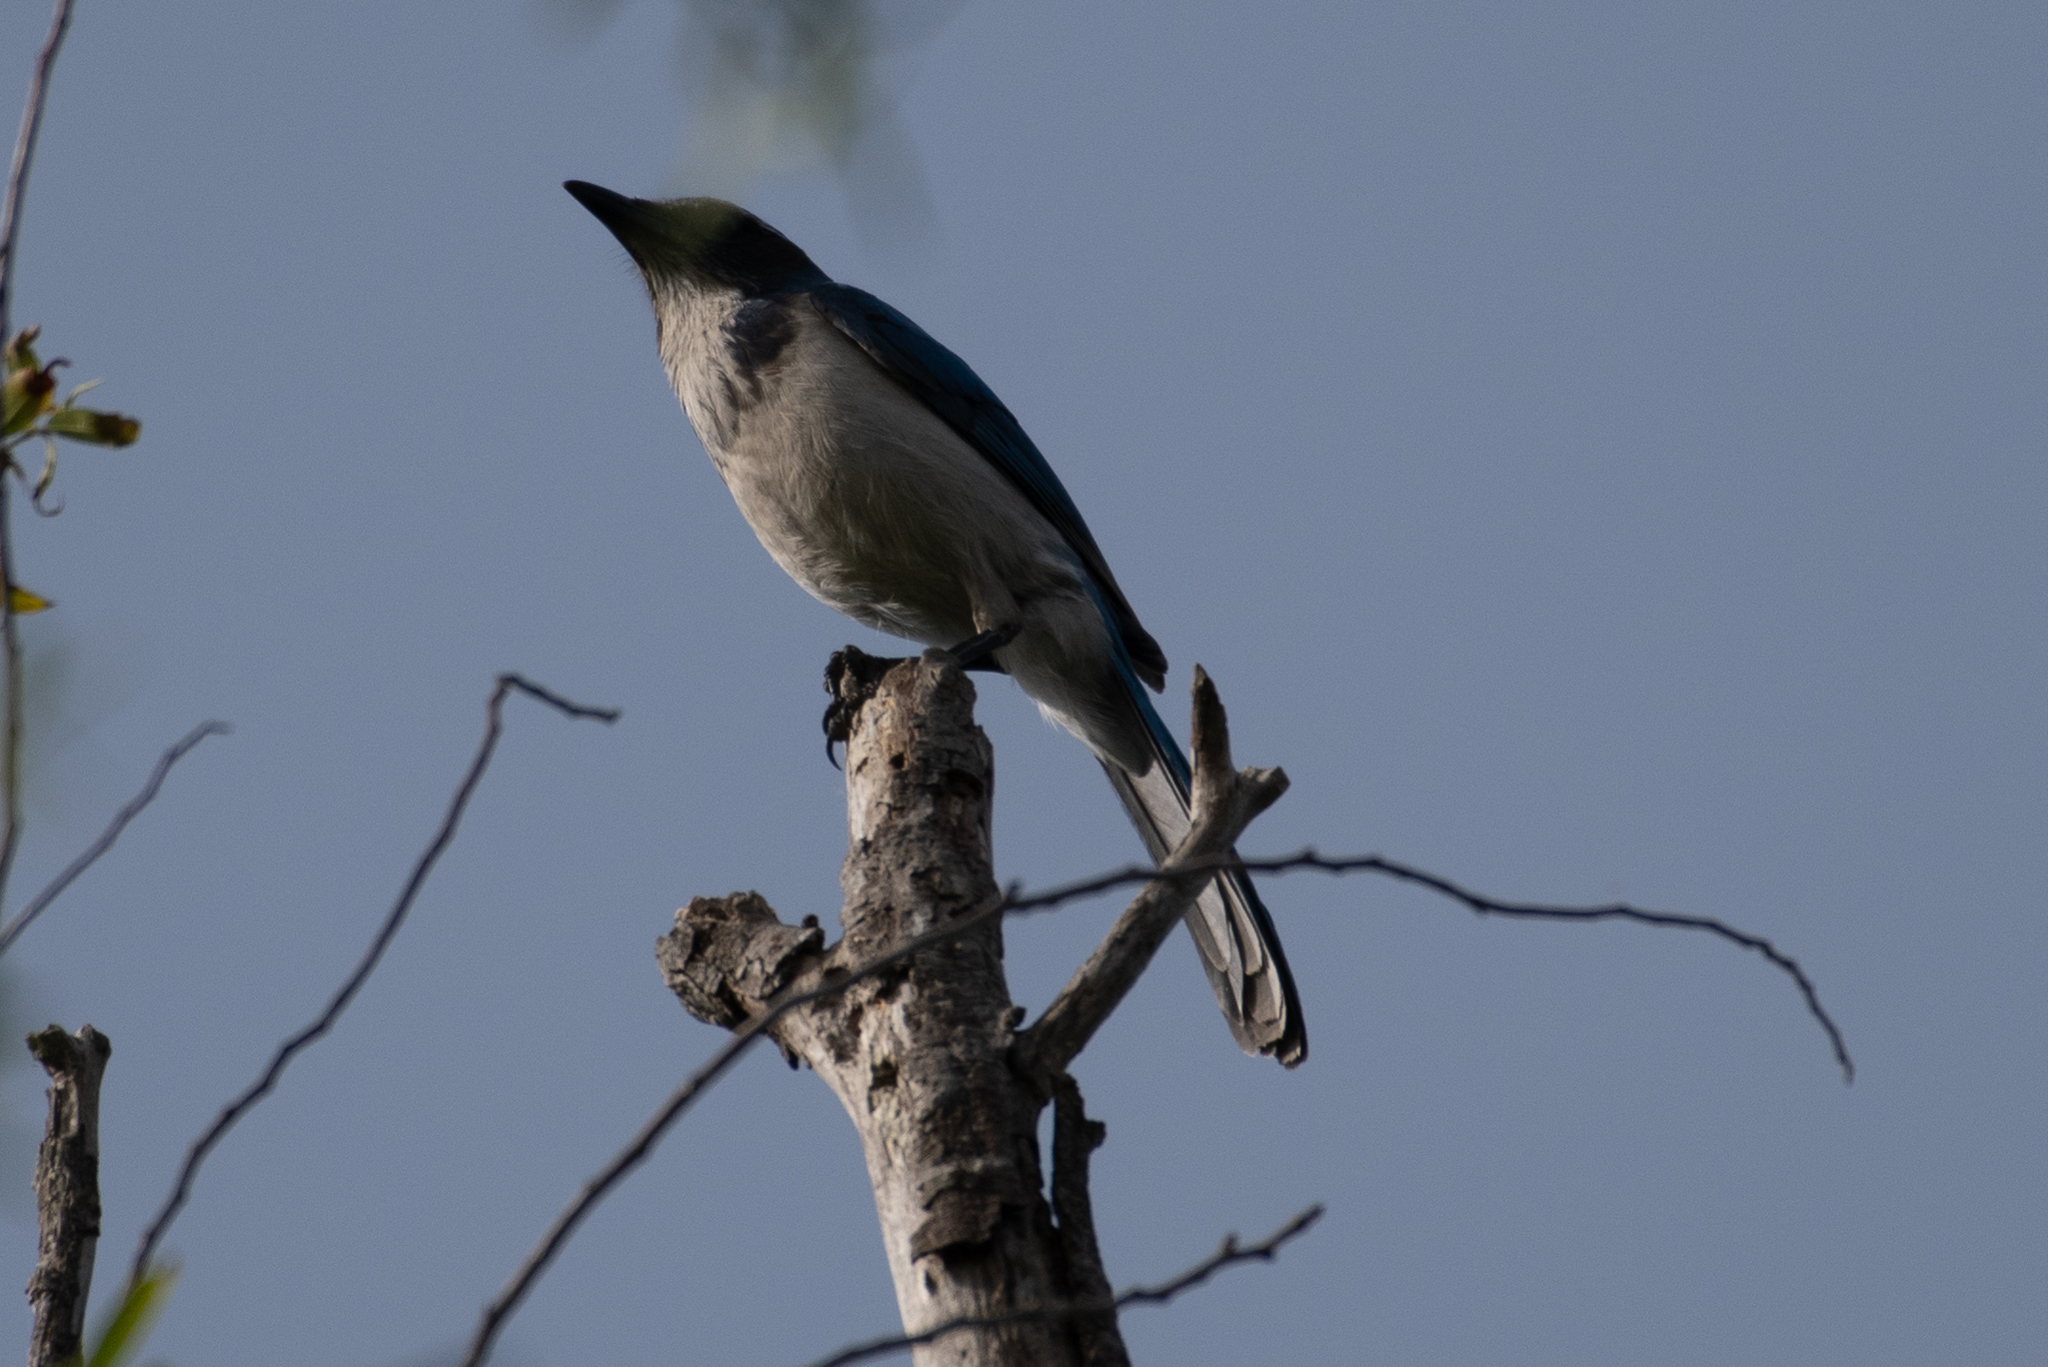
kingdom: Animalia
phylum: Chordata
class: Aves
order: Passeriformes
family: Corvidae
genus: Aphelocoma
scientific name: Aphelocoma californica
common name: California scrub-jay
